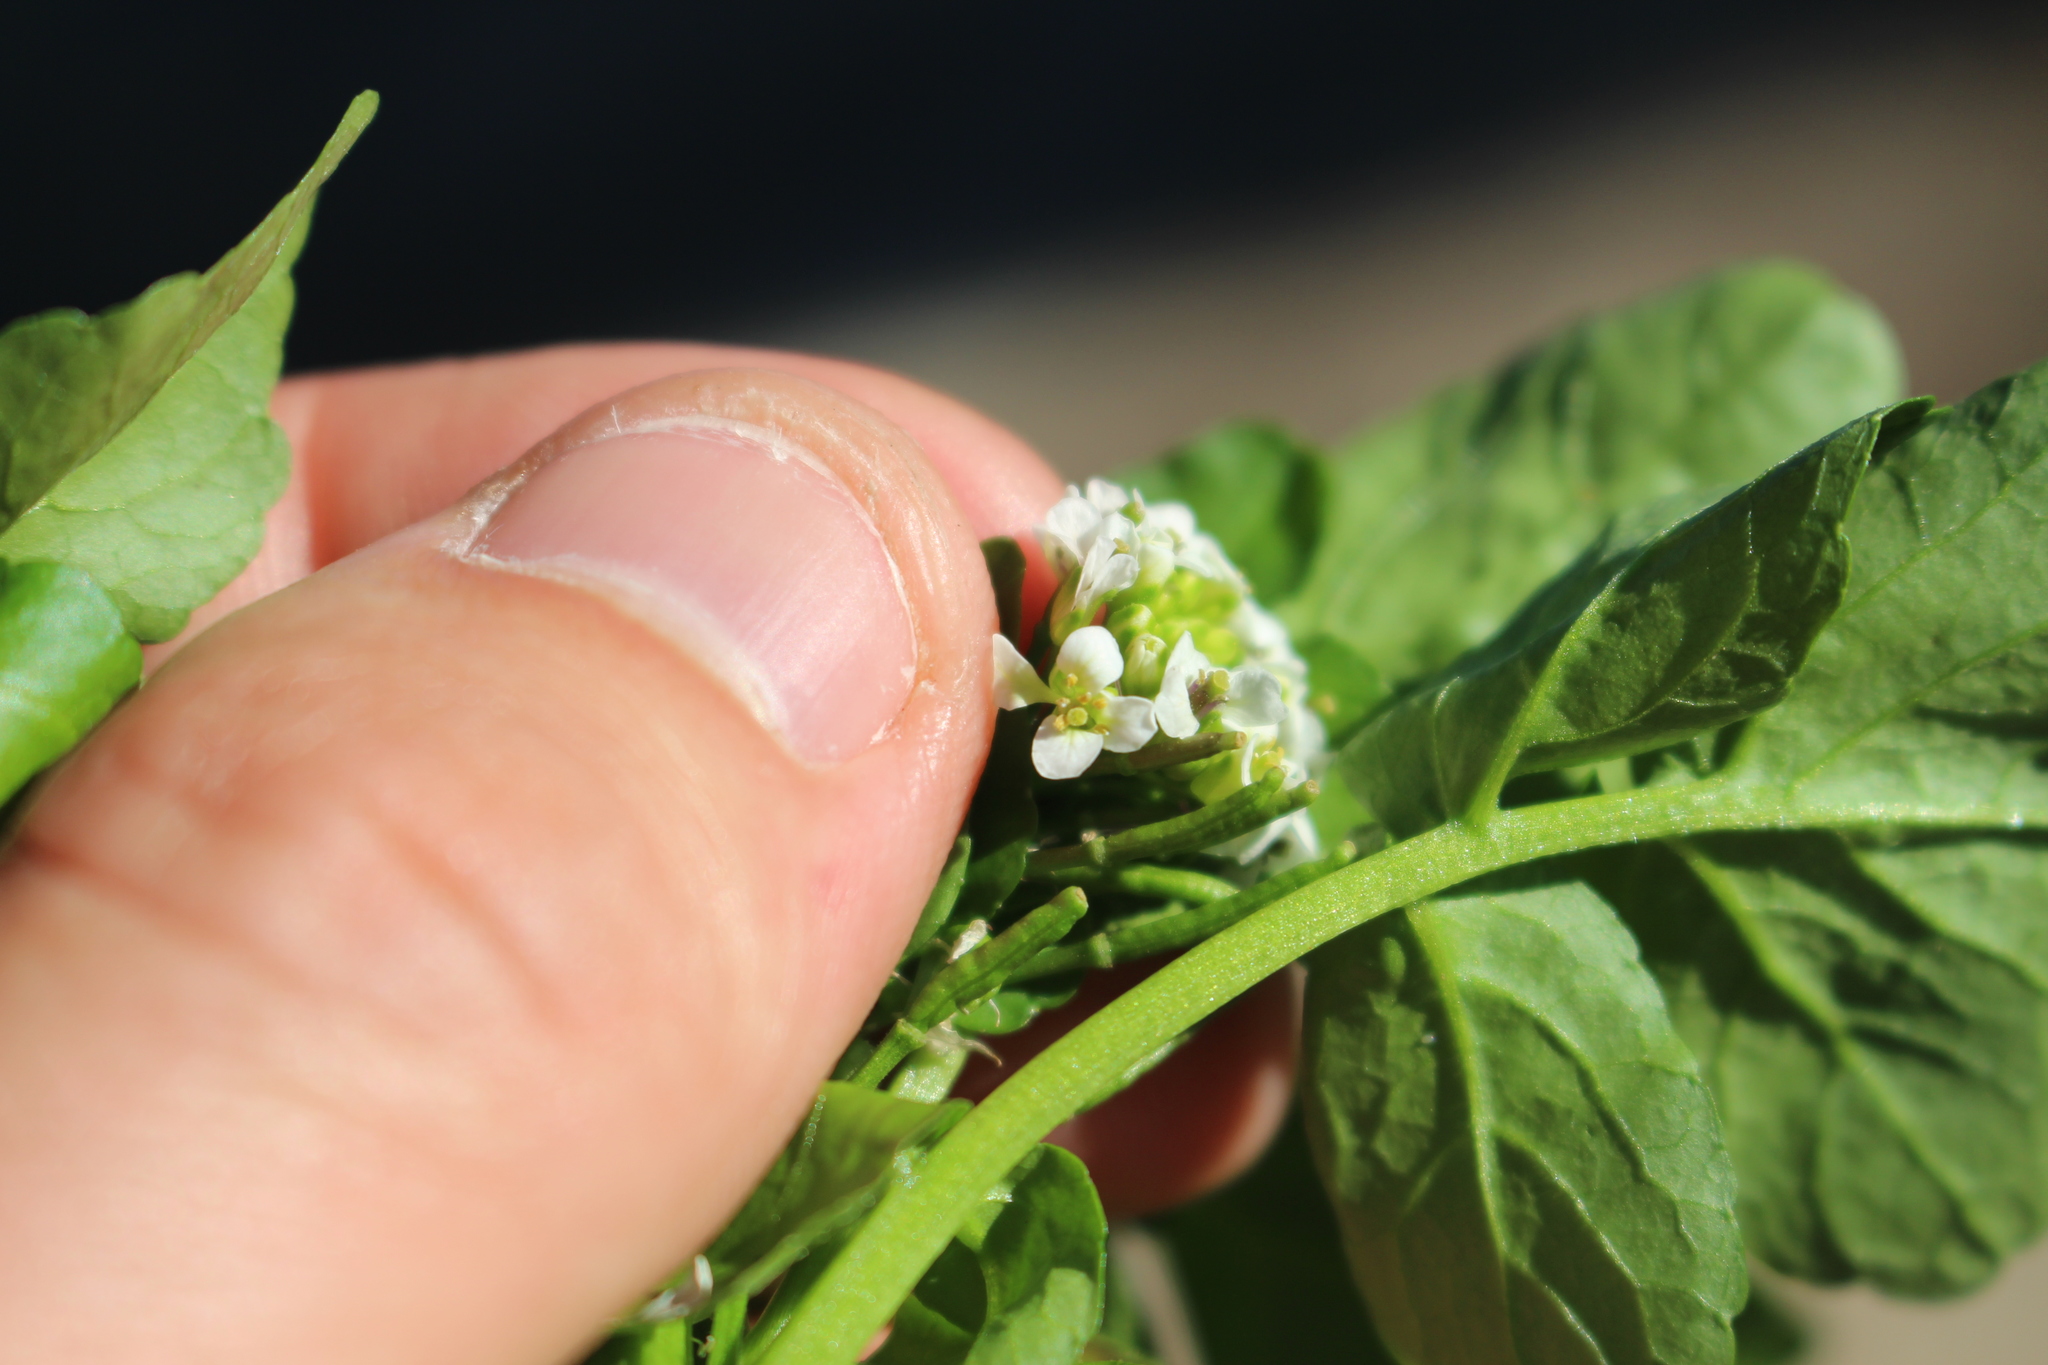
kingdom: Plantae
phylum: Tracheophyta
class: Magnoliopsida
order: Brassicales
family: Brassicaceae
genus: Nasturtium
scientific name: Nasturtium microphyllum
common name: Onerow yellowcress
